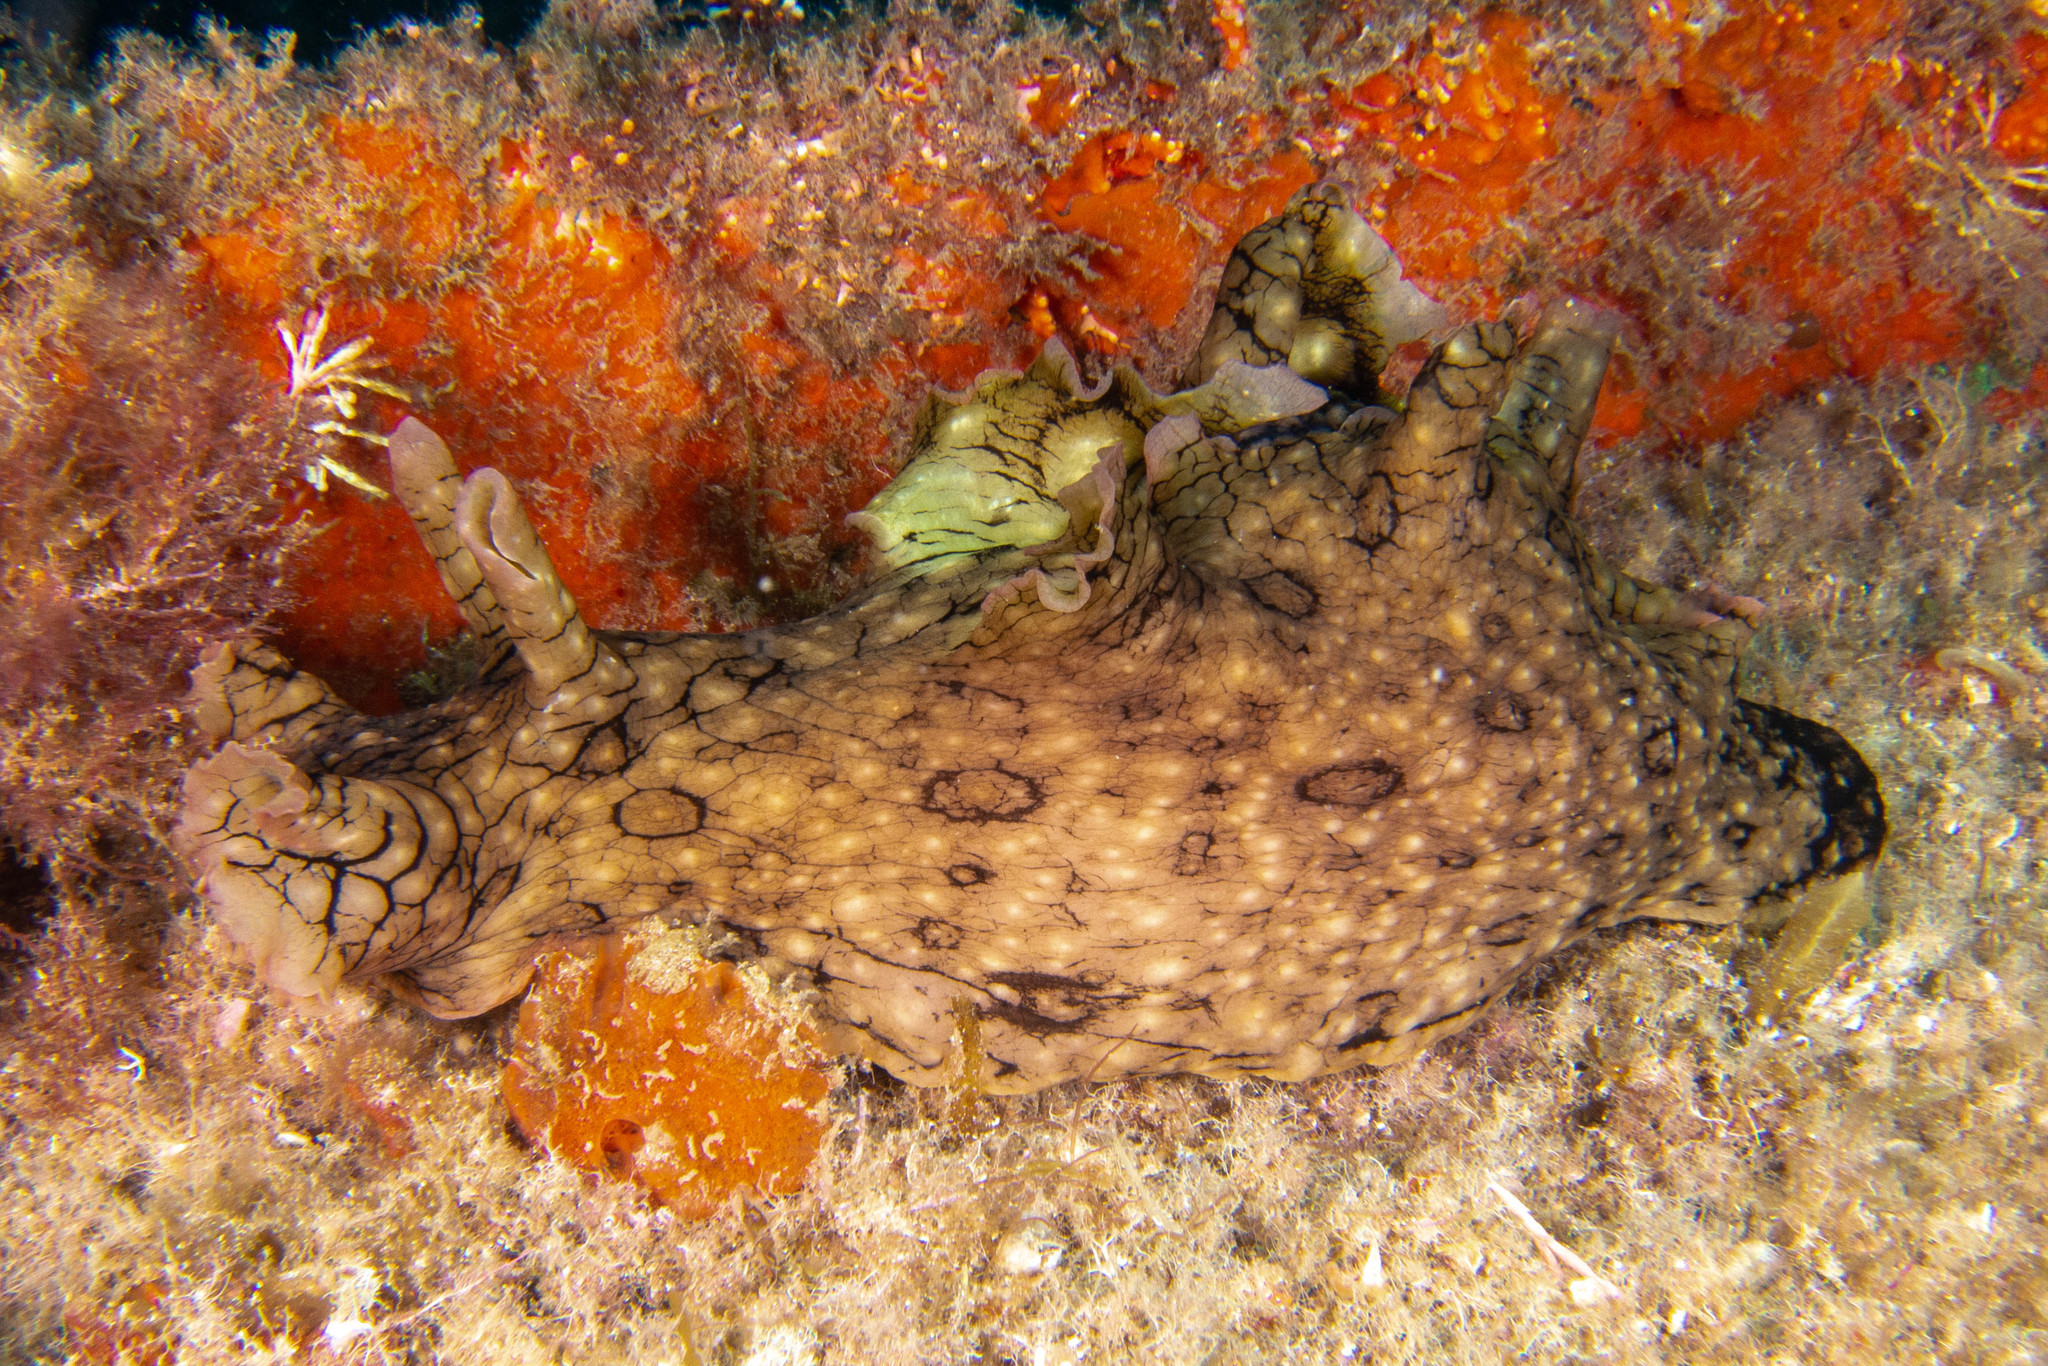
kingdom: Animalia
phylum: Mollusca
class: Gastropoda
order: Aplysiida
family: Aplysiidae
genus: Aplysia
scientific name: Aplysia argus
